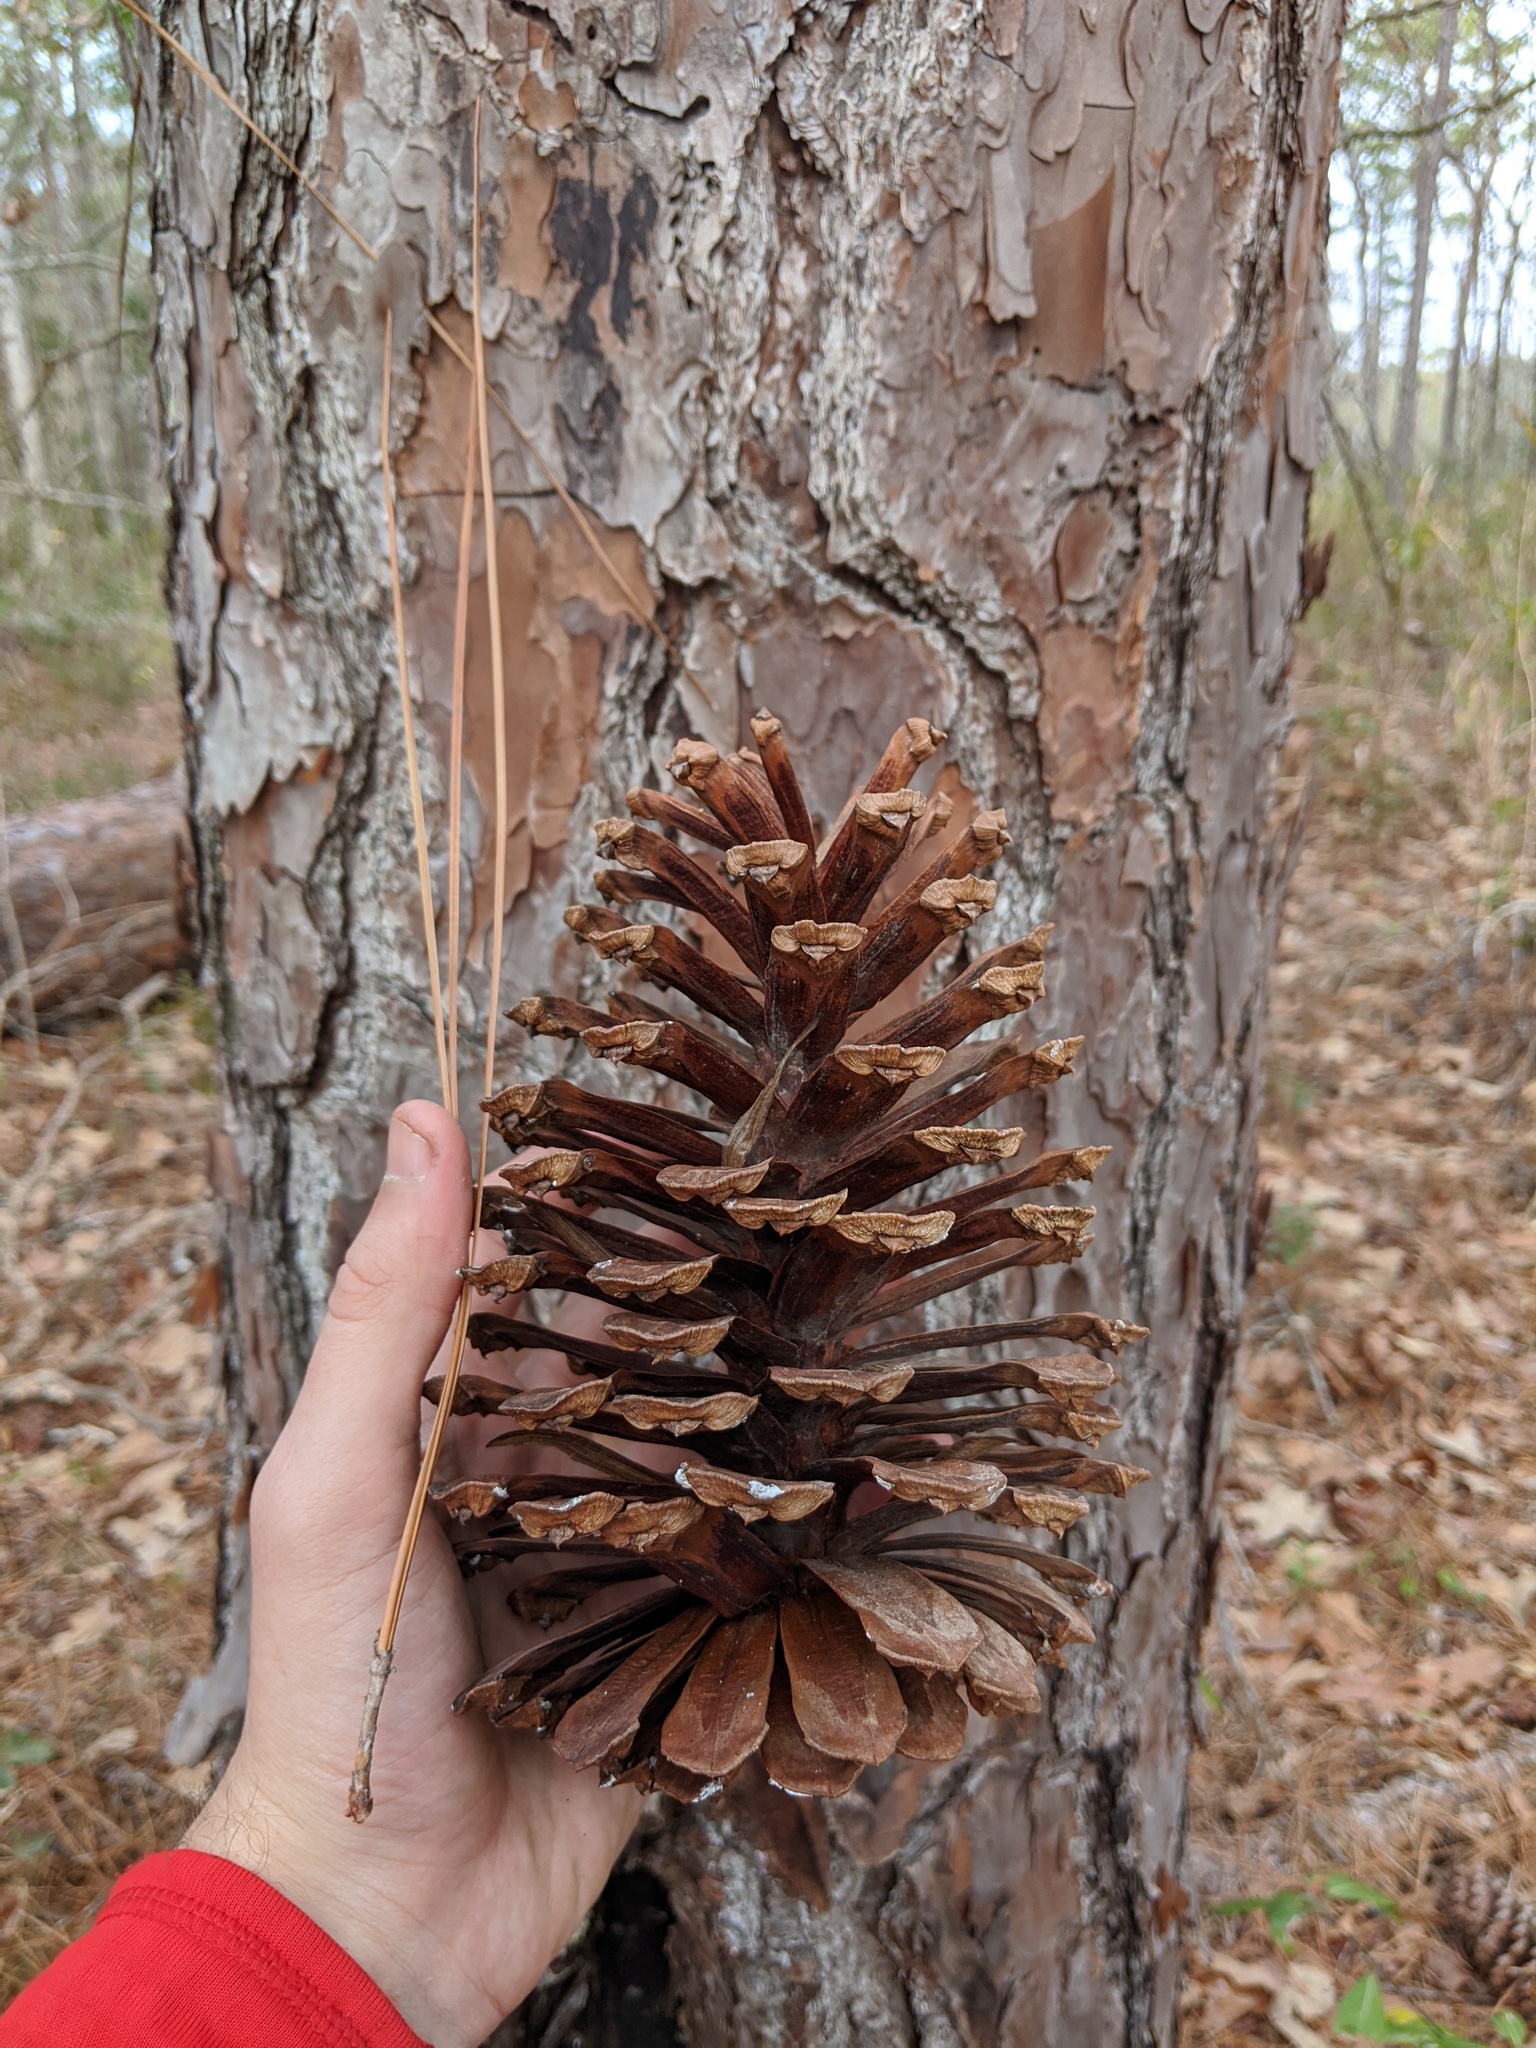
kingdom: Plantae
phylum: Tracheophyta
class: Pinopsida
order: Pinales
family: Pinaceae
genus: Pinus
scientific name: Pinus palustris
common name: Longleaf pine
